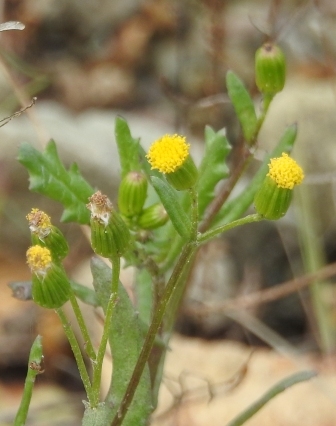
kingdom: Plantae
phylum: Tracheophyta
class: Magnoliopsida
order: Asterales
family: Asteraceae
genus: Senecio
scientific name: Senecio vulgaris
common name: Old-man-in-the-spring
